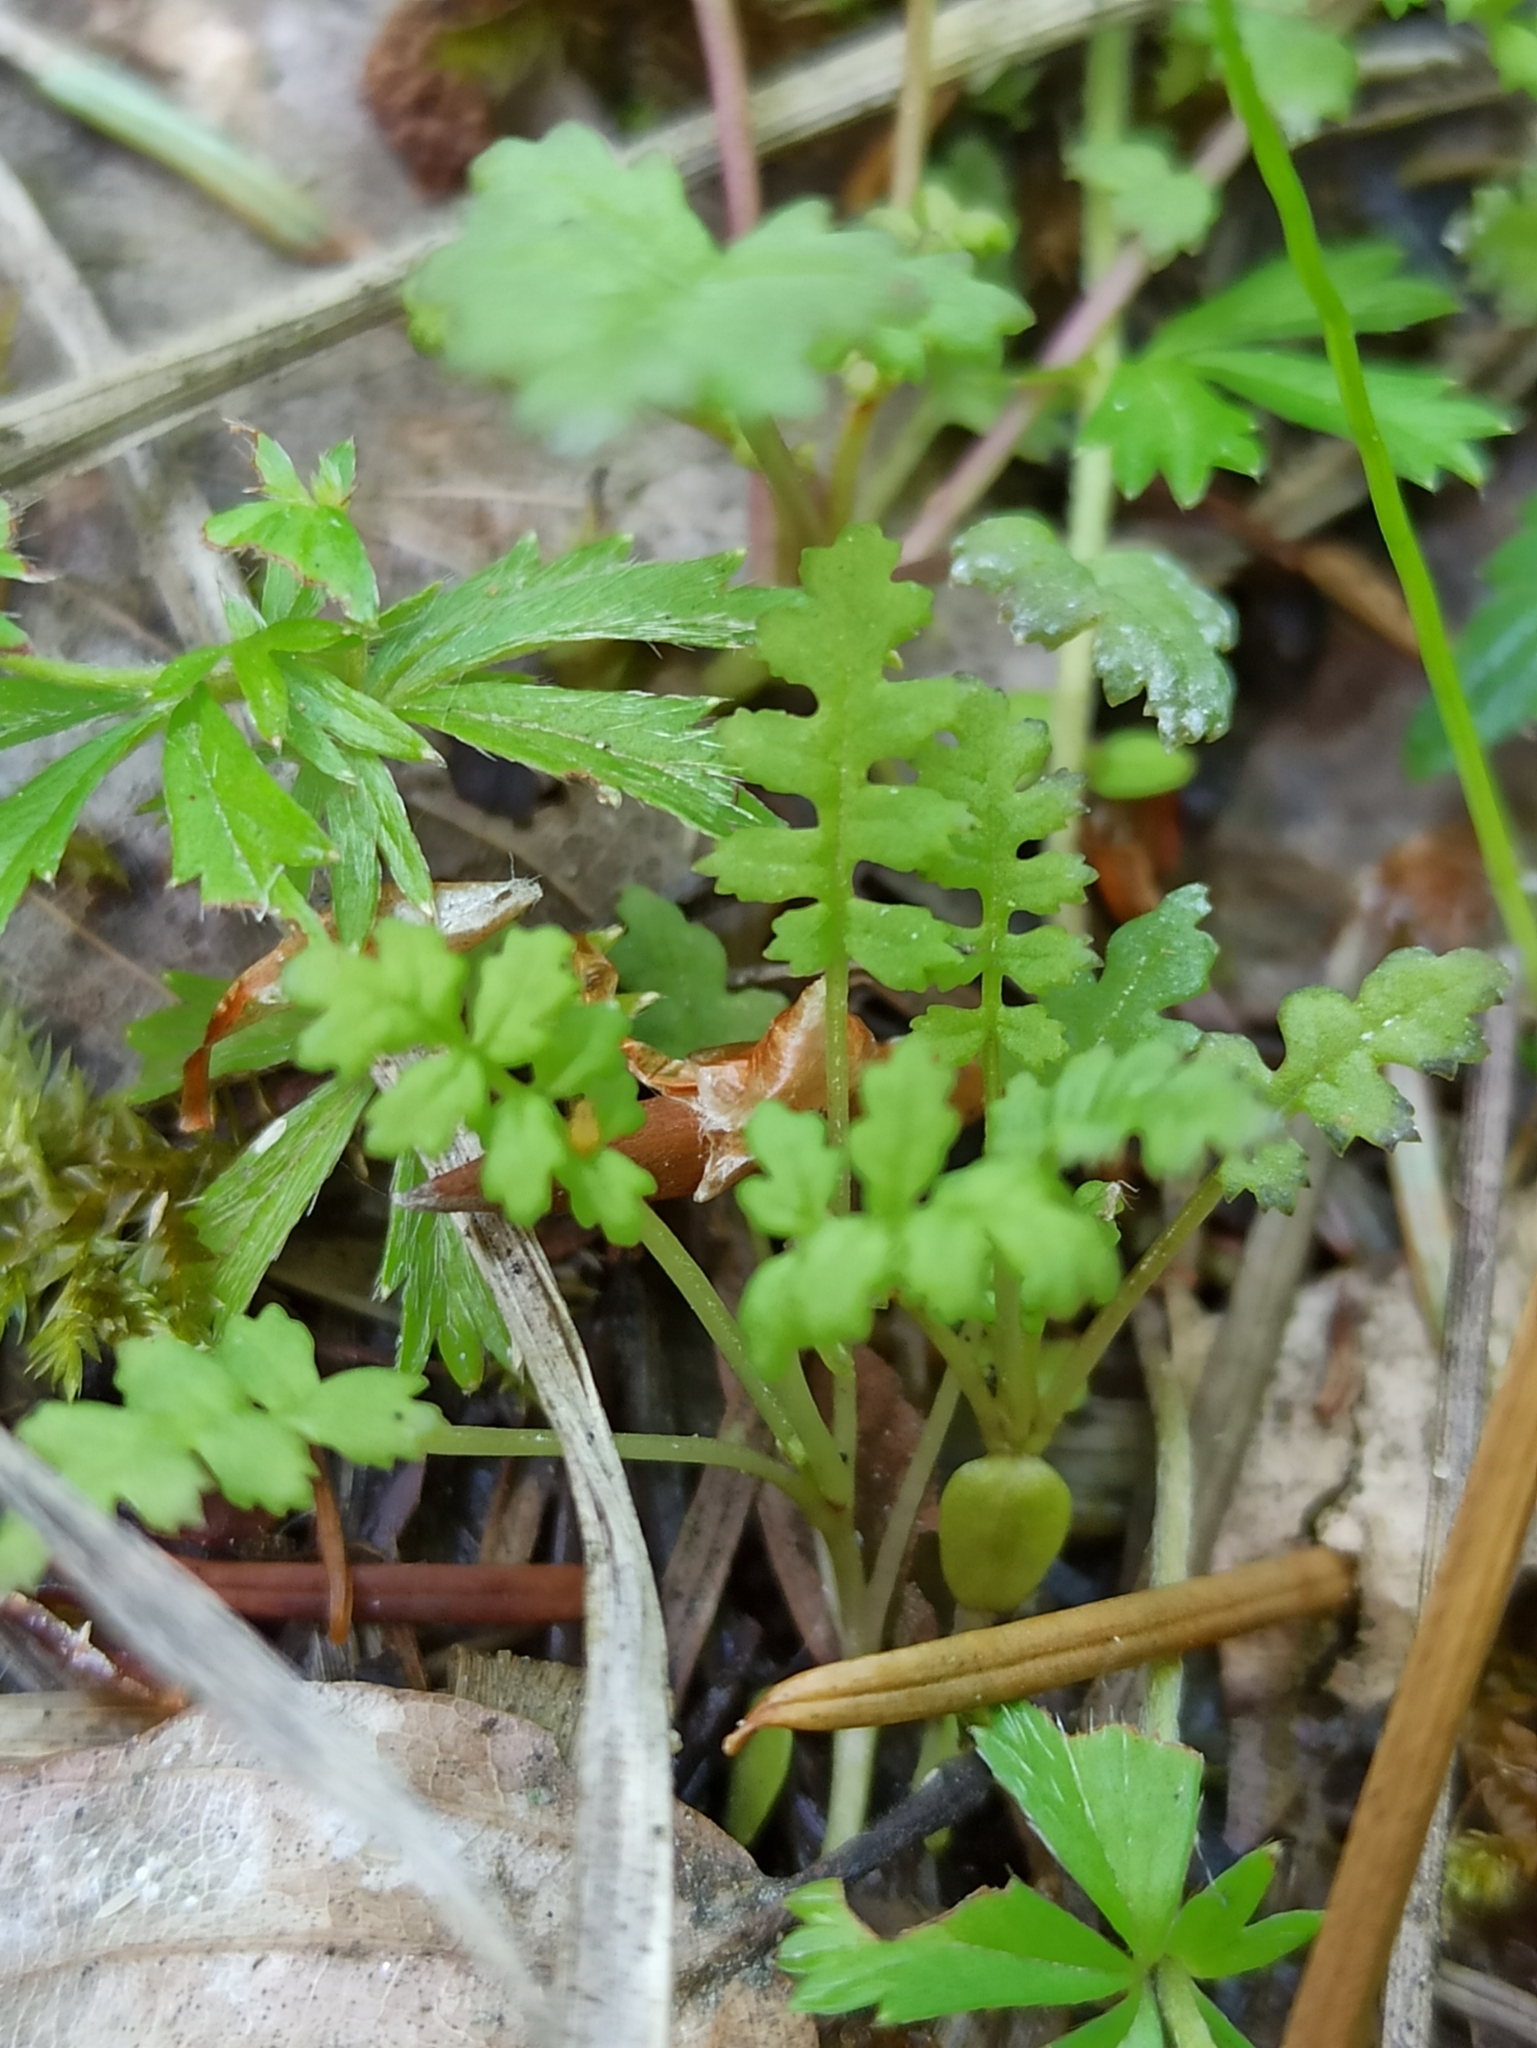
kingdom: Plantae
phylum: Tracheophyta
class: Magnoliopsida
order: Lamiales
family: Orobanchaceae
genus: Pedicularis
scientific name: Pedicularis sylvatica
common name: Lousewort
